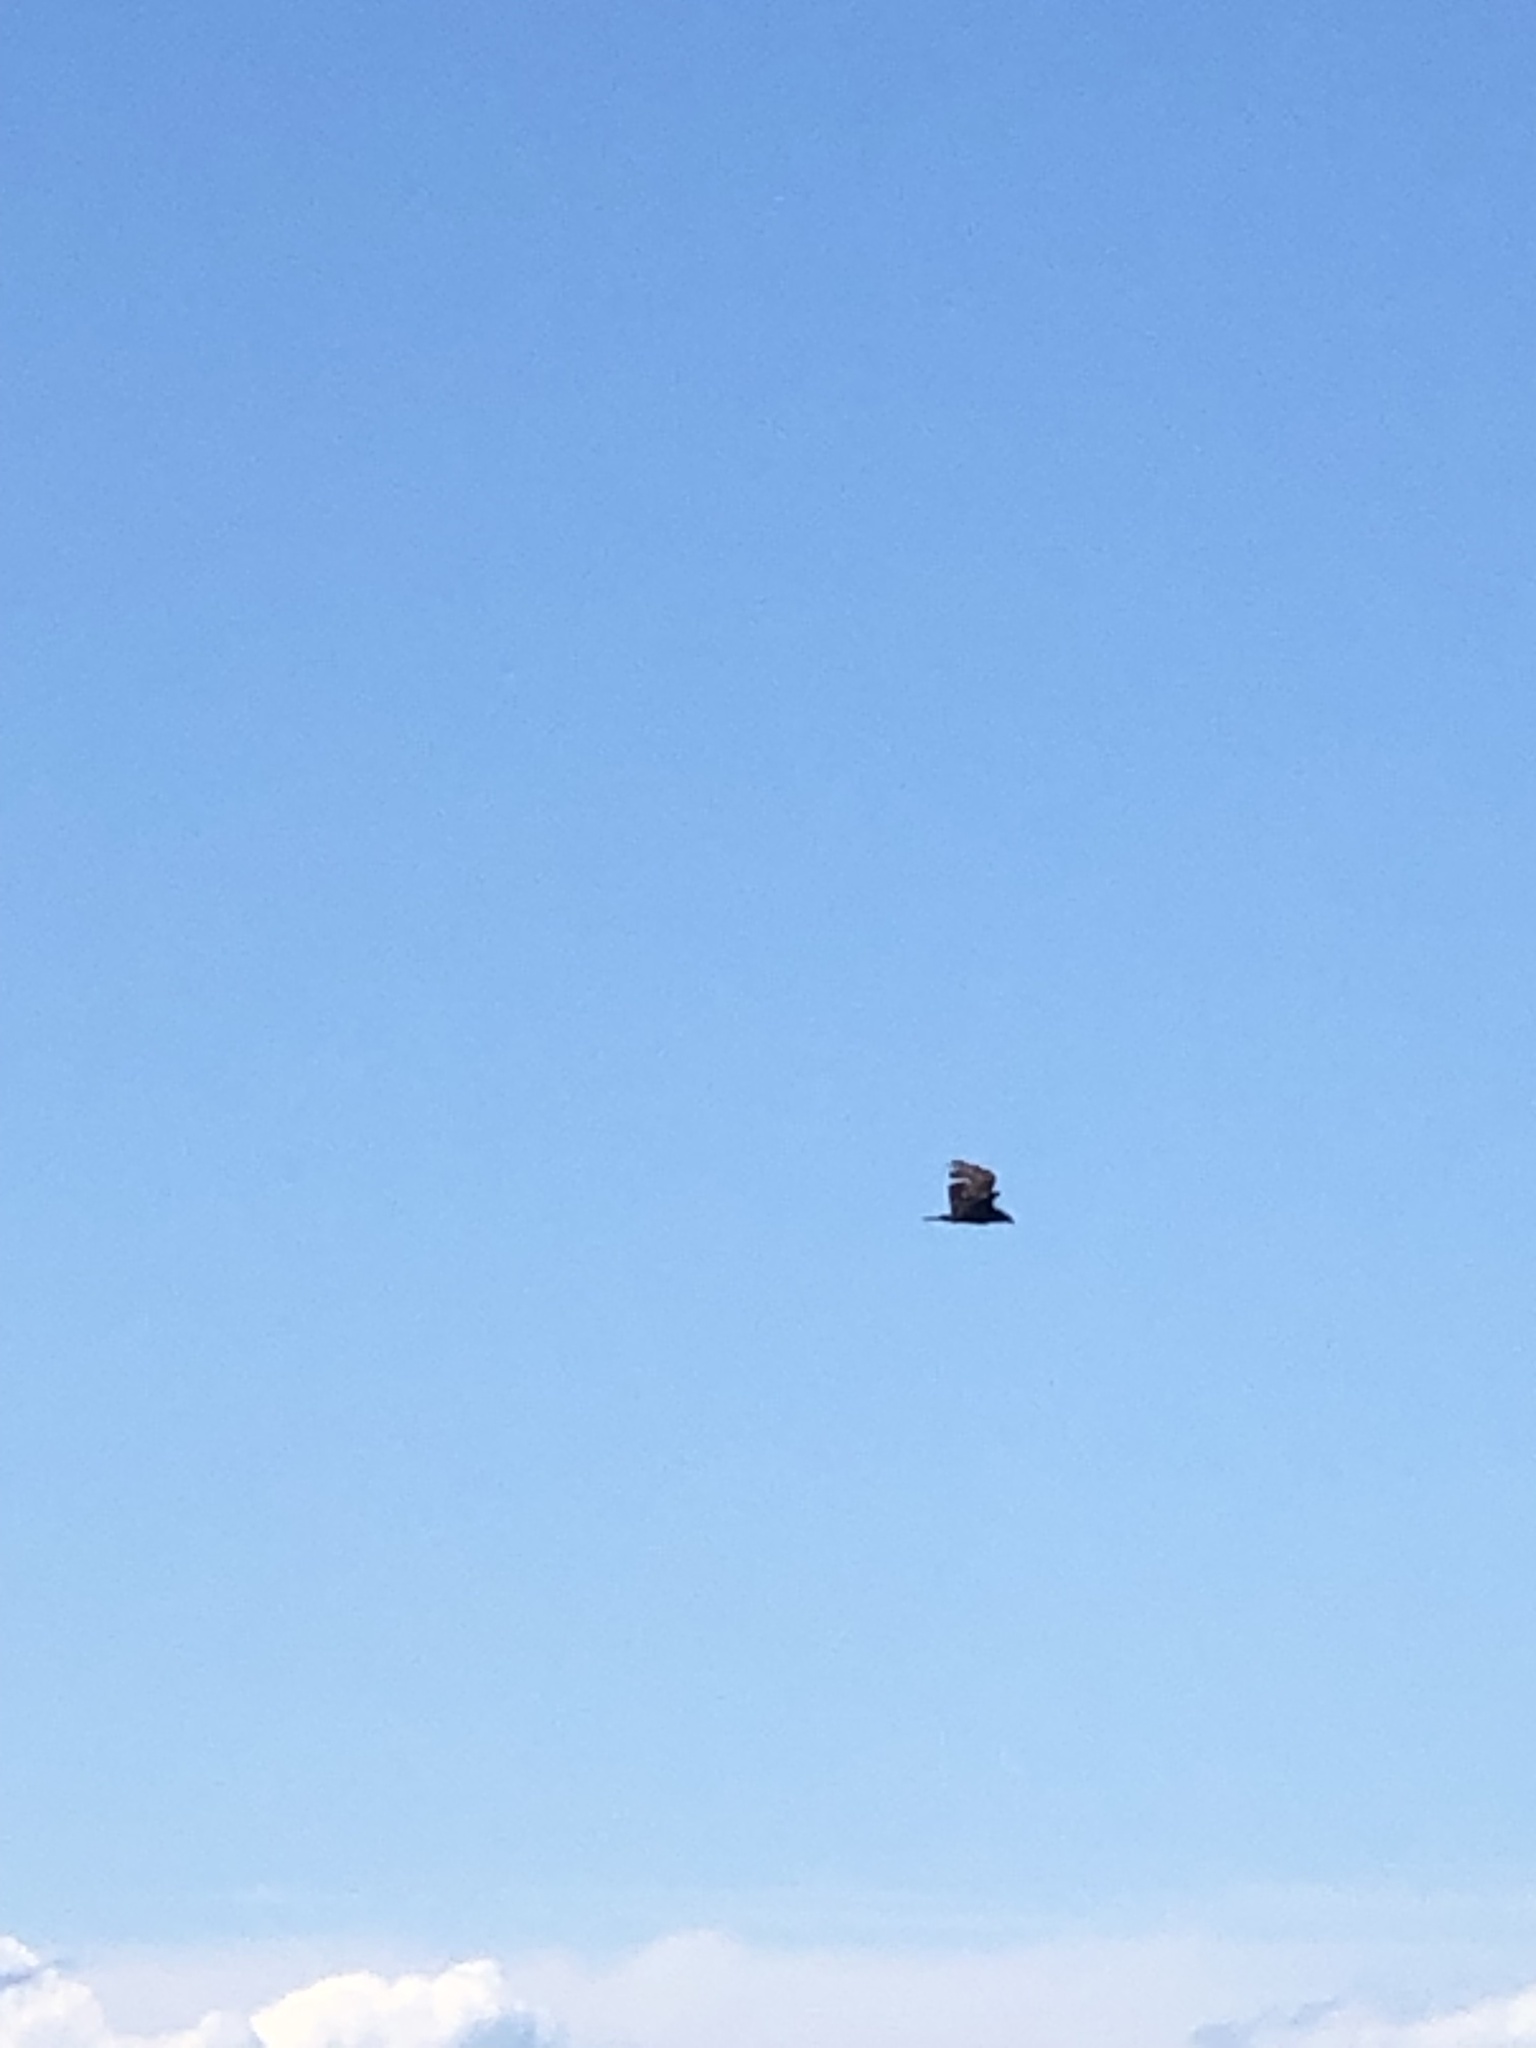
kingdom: Animalia
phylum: Chordata
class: Aves
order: Accipitriformes
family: Cathartidae
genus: Cathartes
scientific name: Cathartes aura
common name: Turkey vulture
